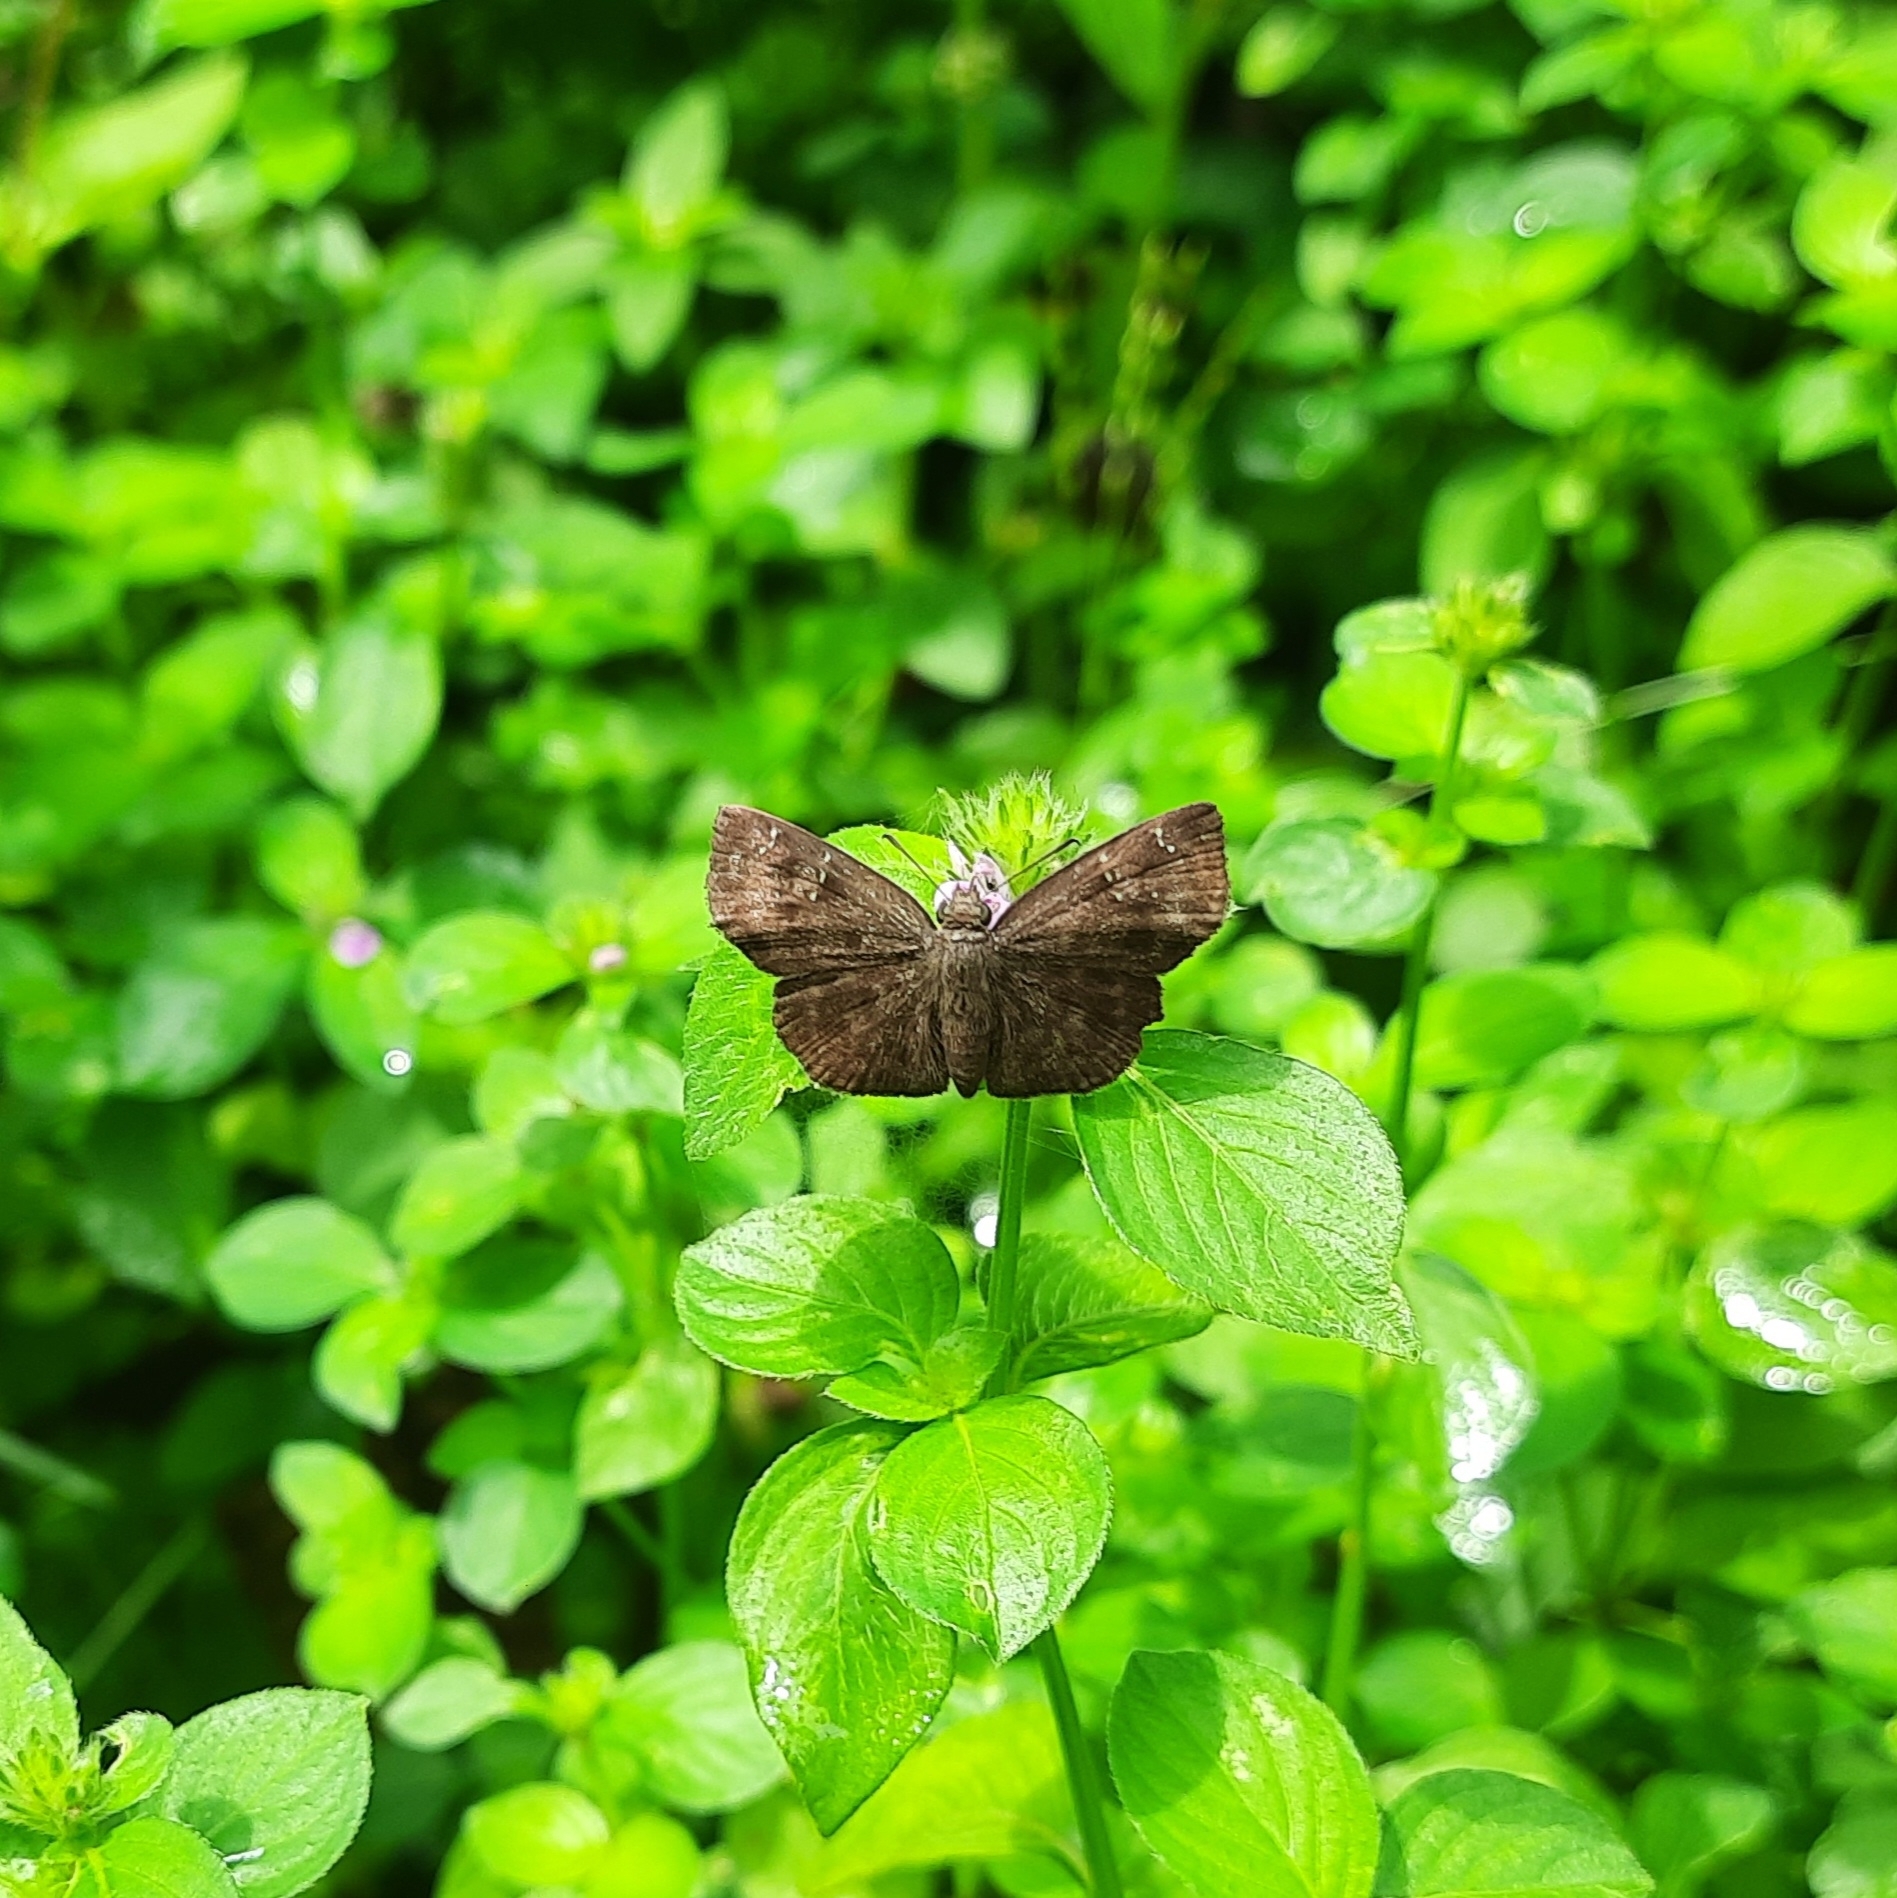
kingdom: Animalia
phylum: Arthropoda
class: Insecta
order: Lepidoptera
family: Hesperiidae
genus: Sarangesa
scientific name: Sarangesa dasahara
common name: Common small flat
